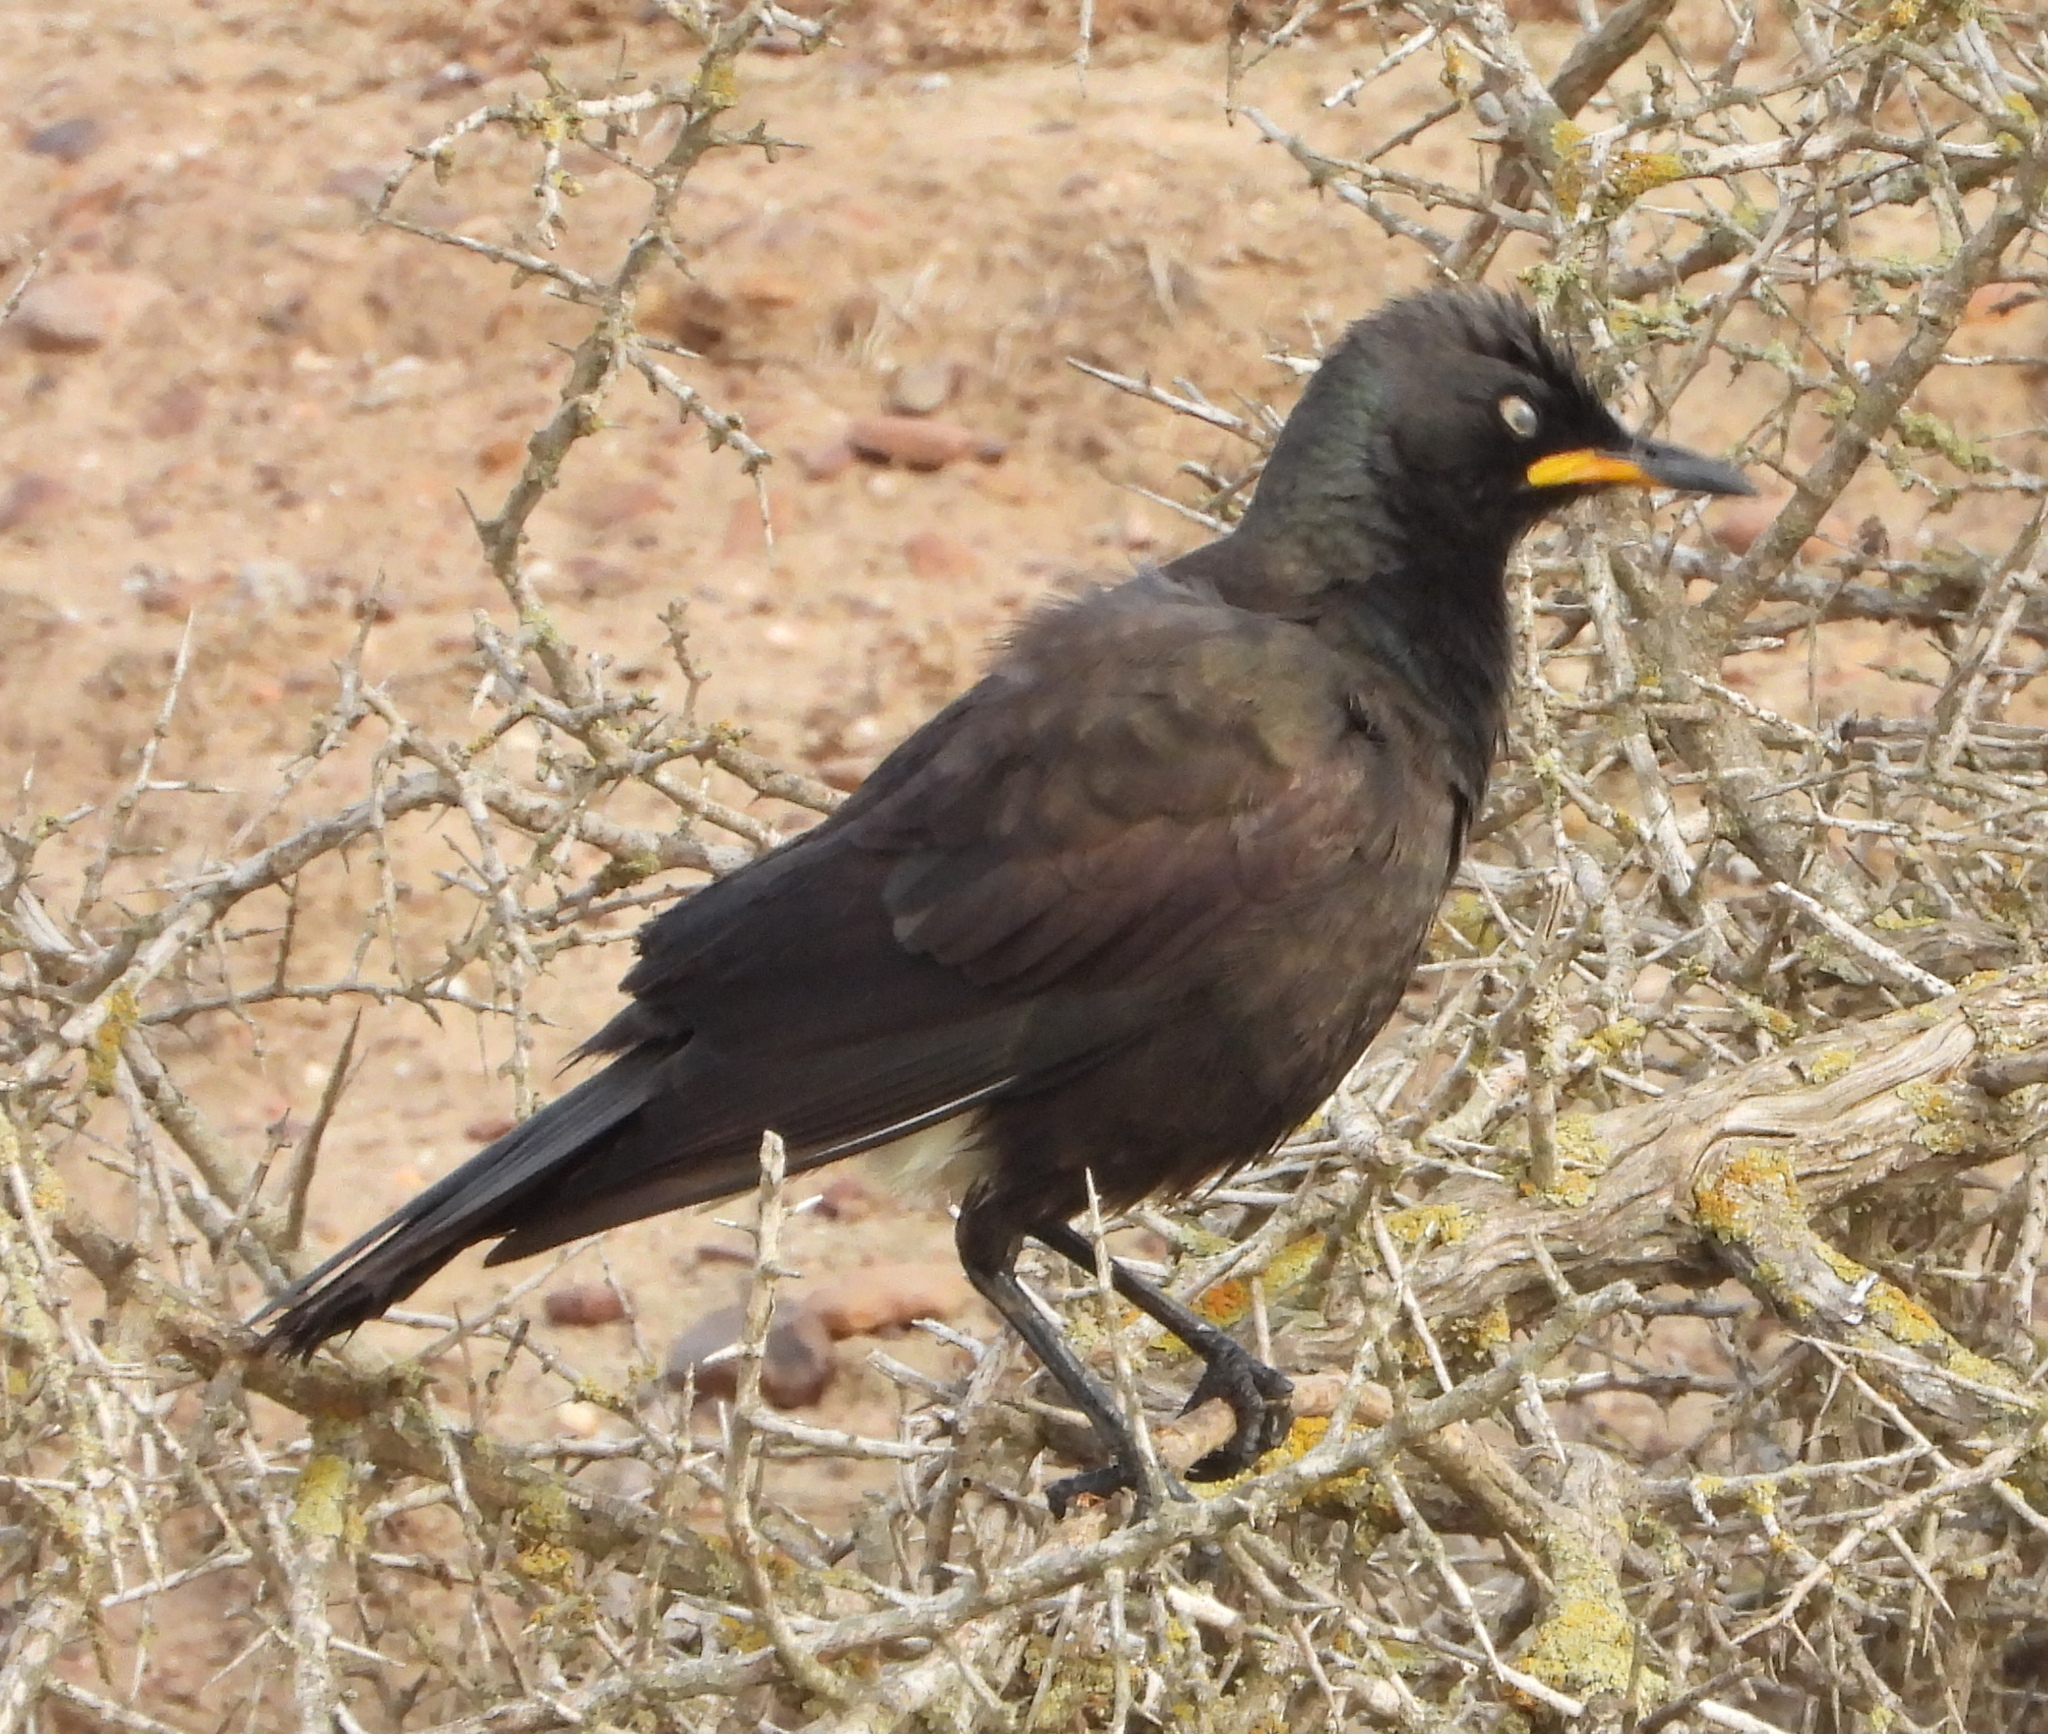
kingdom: Animalia
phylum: Chordata
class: Aves
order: Passeriformes
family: Sturnidae
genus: Lamprotornis
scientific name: Lamprotornis bicolor
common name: Pied starling
